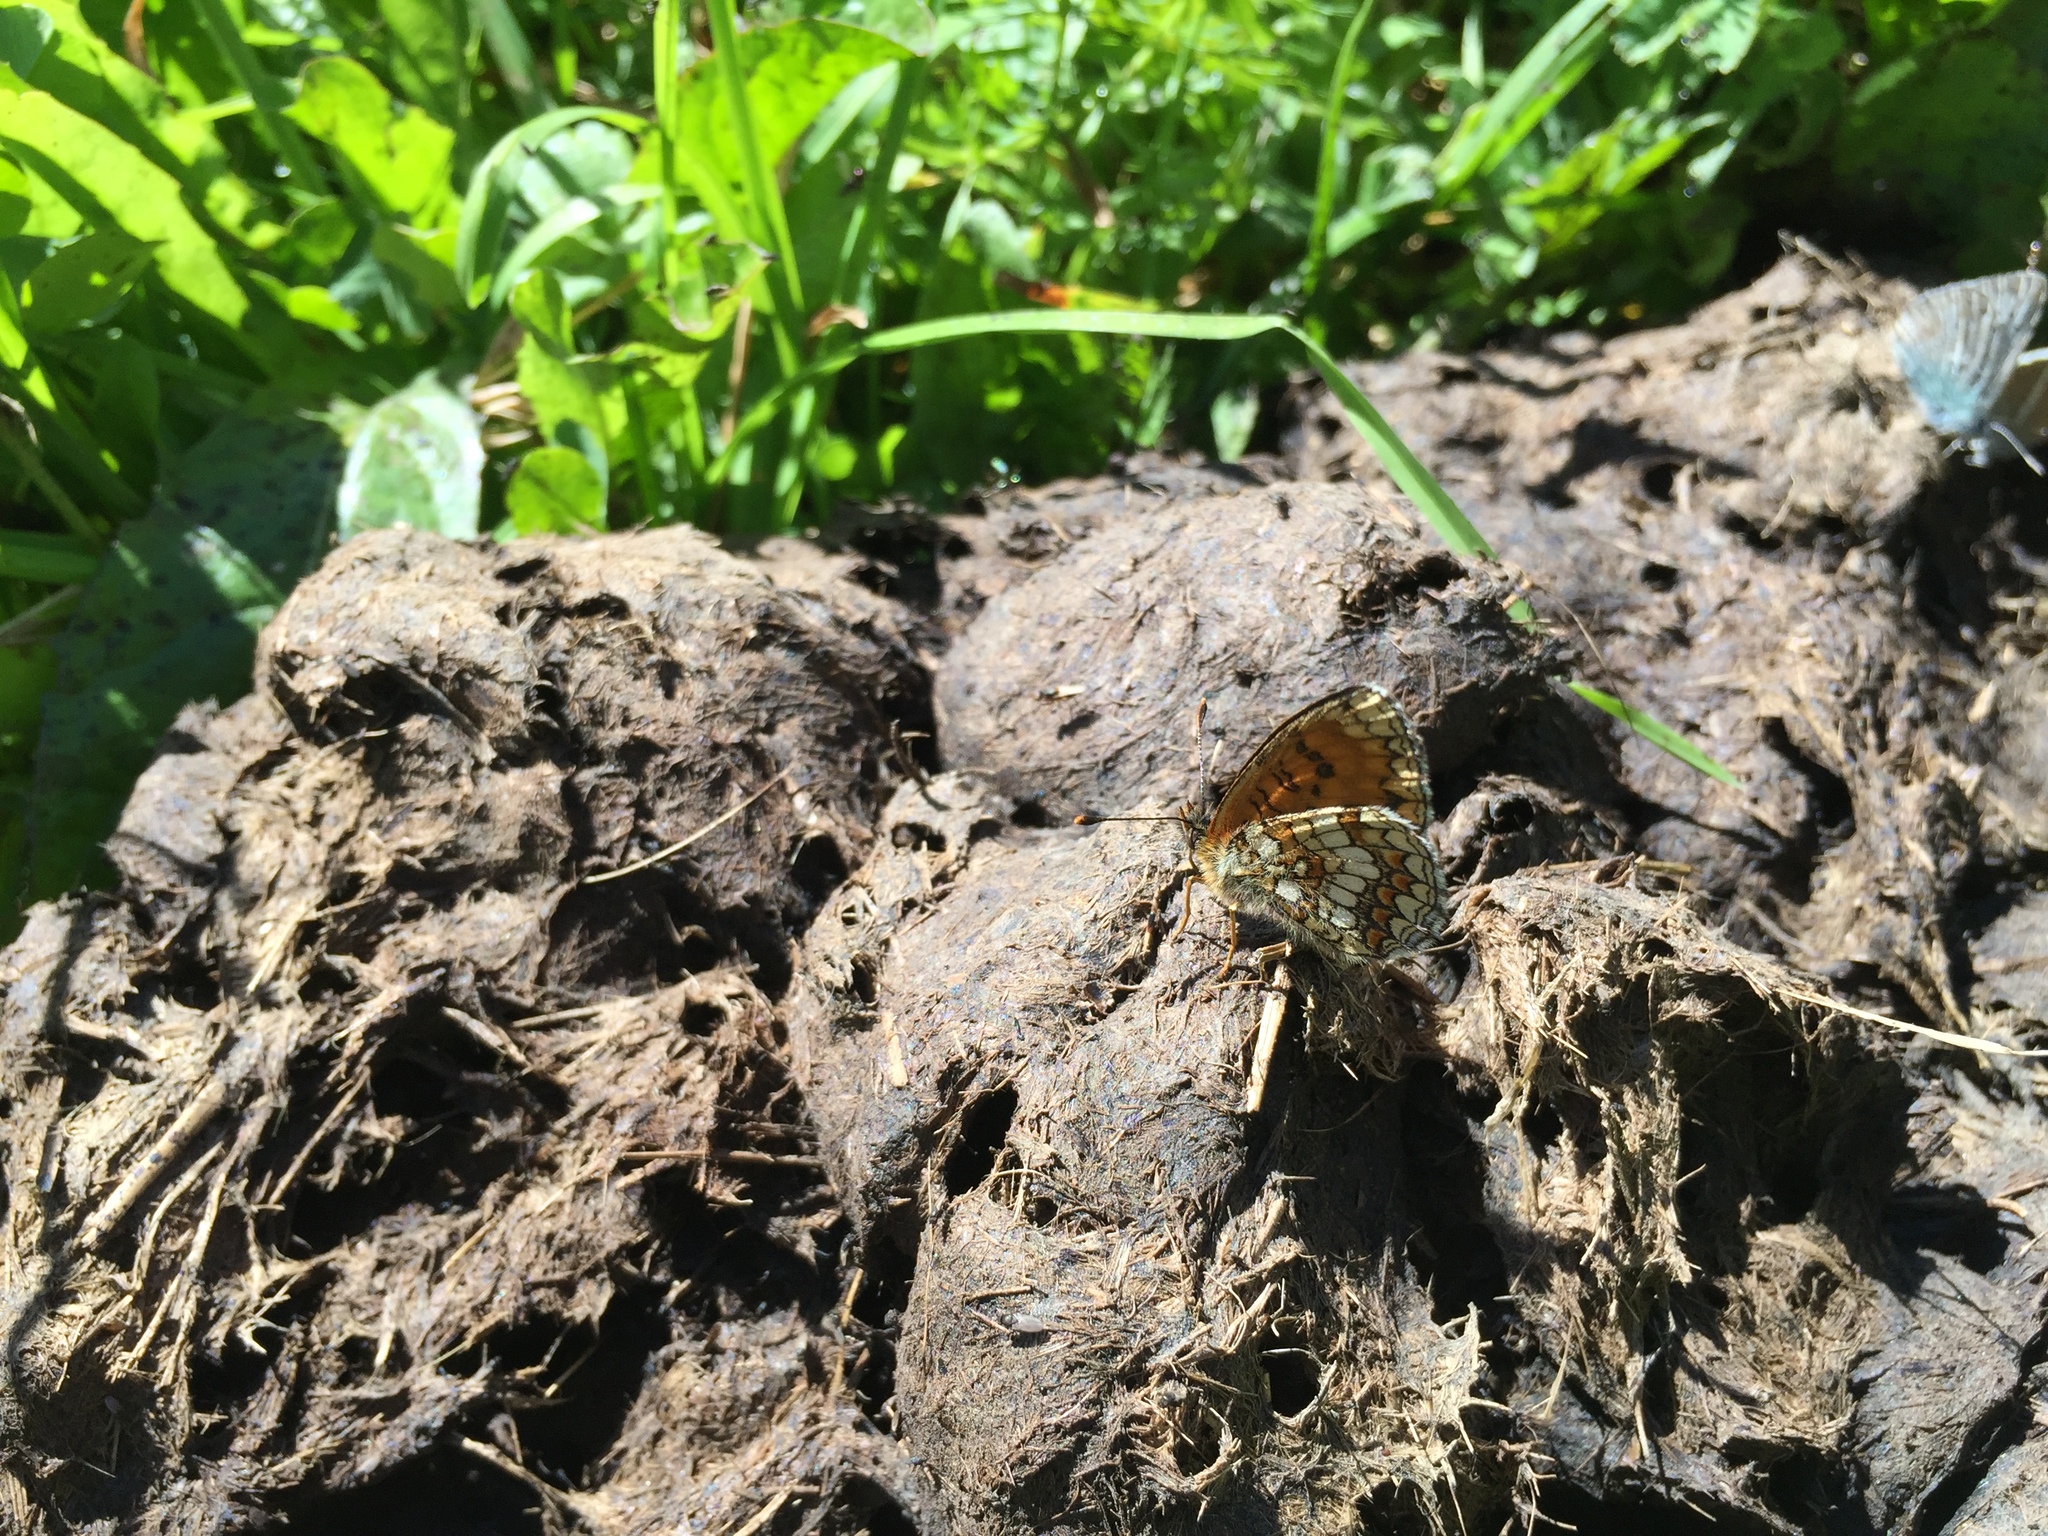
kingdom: Animalia
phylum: Arthropoda
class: Insecta
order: Lepidoptera
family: Nymphalidae
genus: Melitaea
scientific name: Melitaea athalia
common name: Heath fritillary
